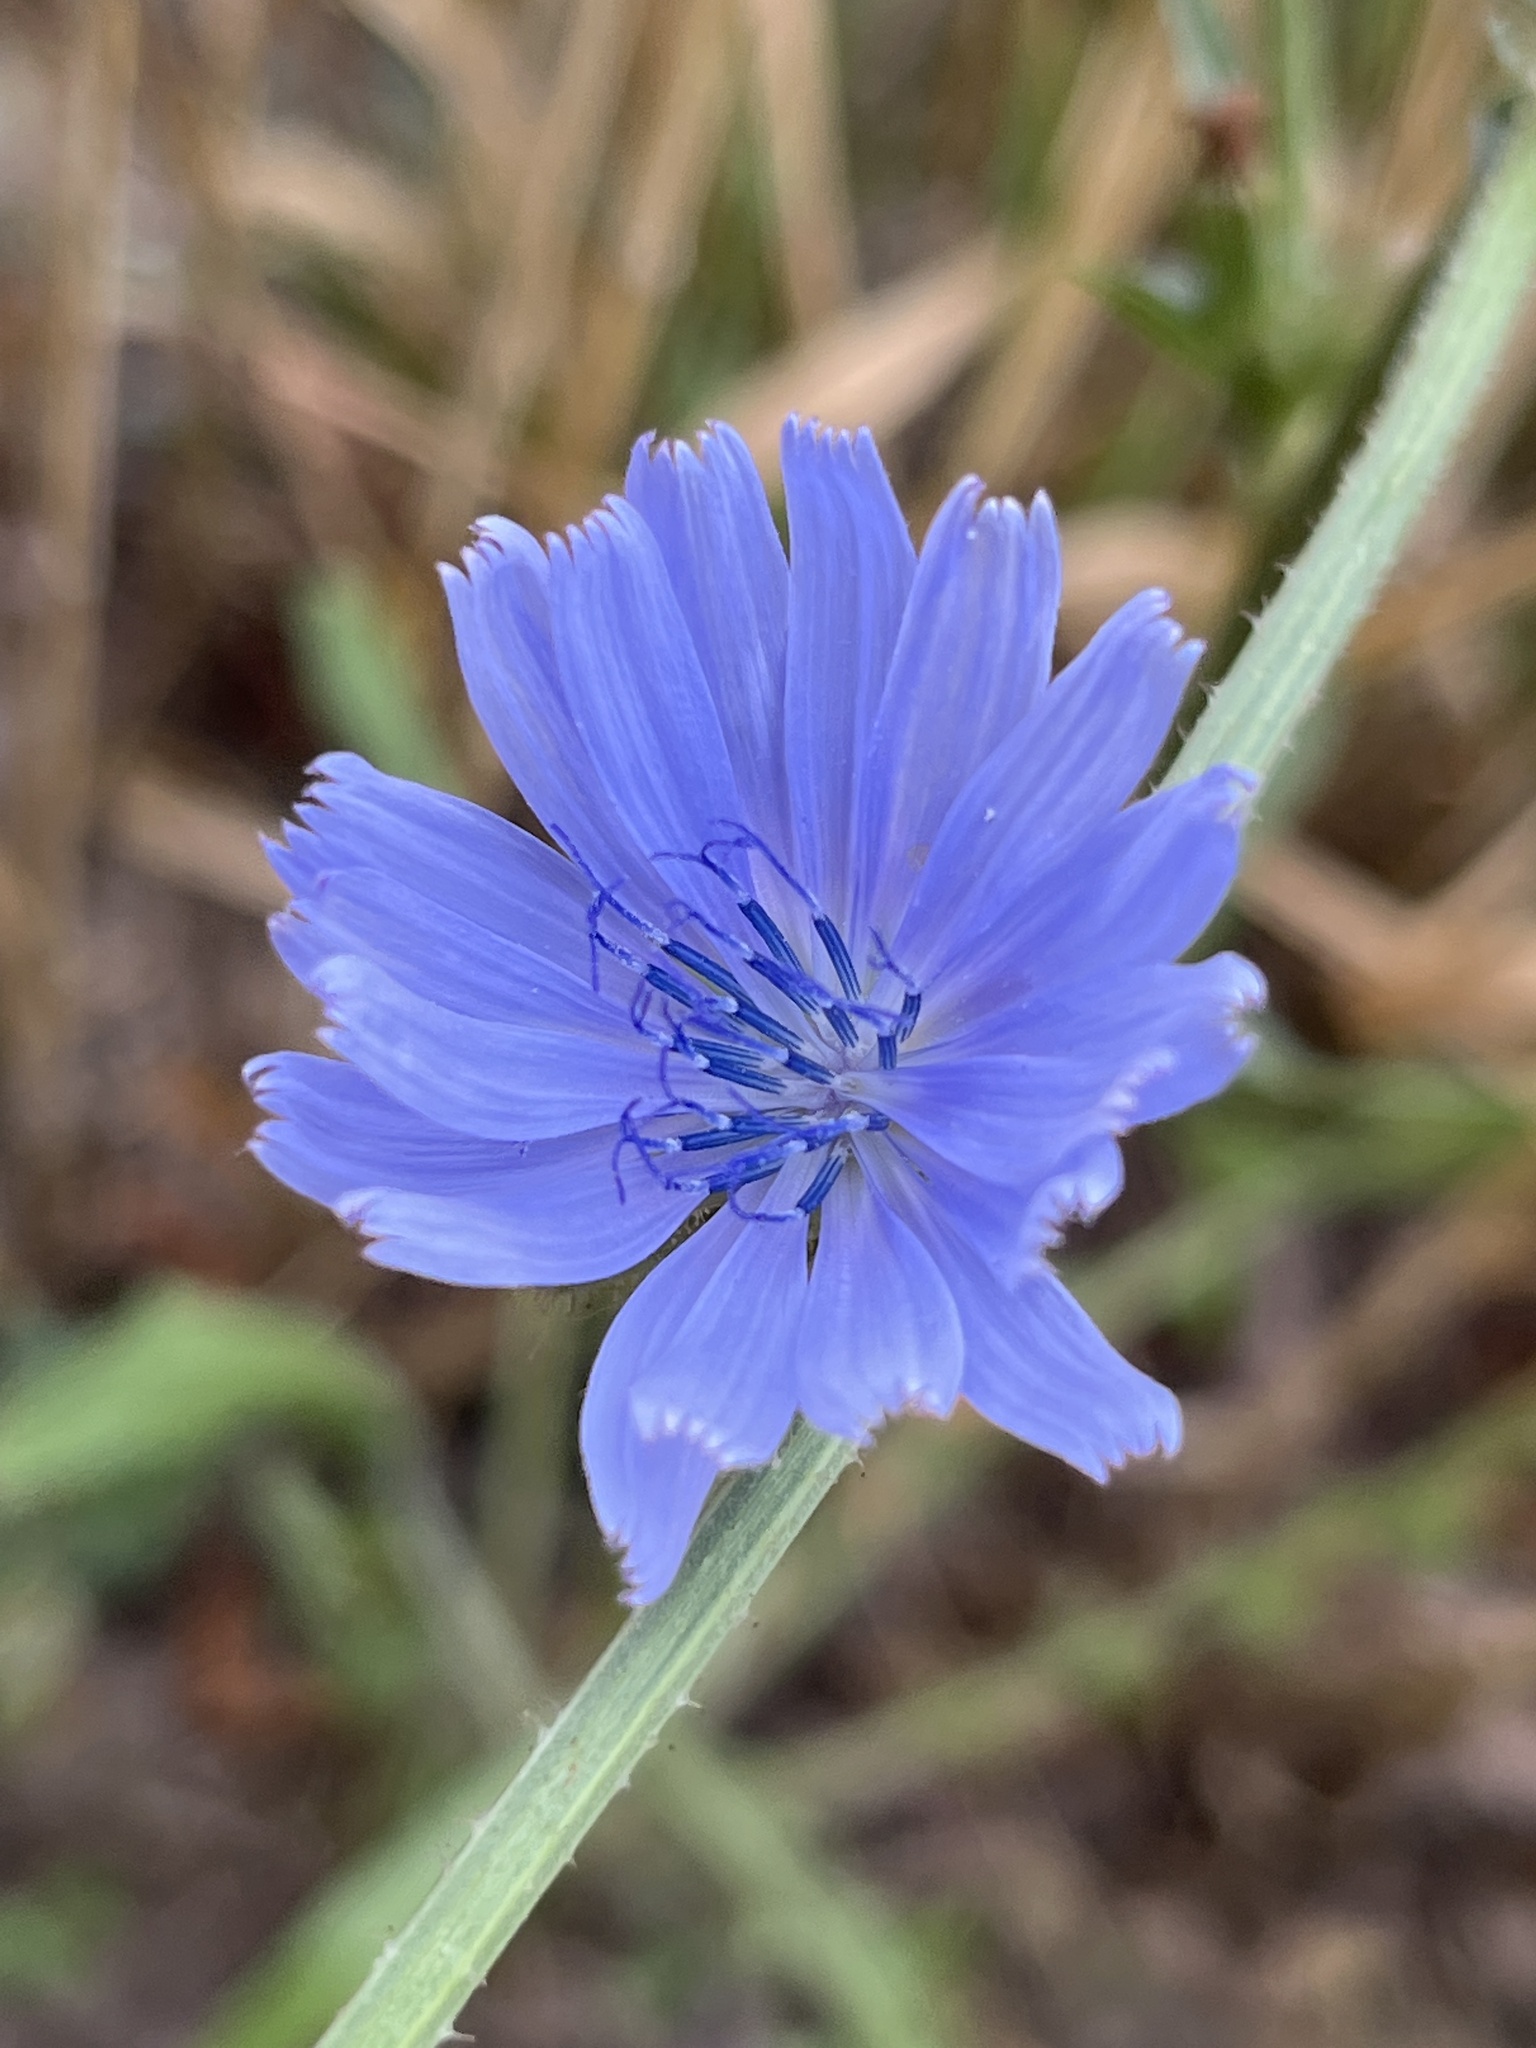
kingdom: Plantae
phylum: Tracheophyta
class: Magnoliopsida
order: Asterales
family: Asteraceae
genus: Cichorium
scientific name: Cichorium intybus
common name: Chicory
